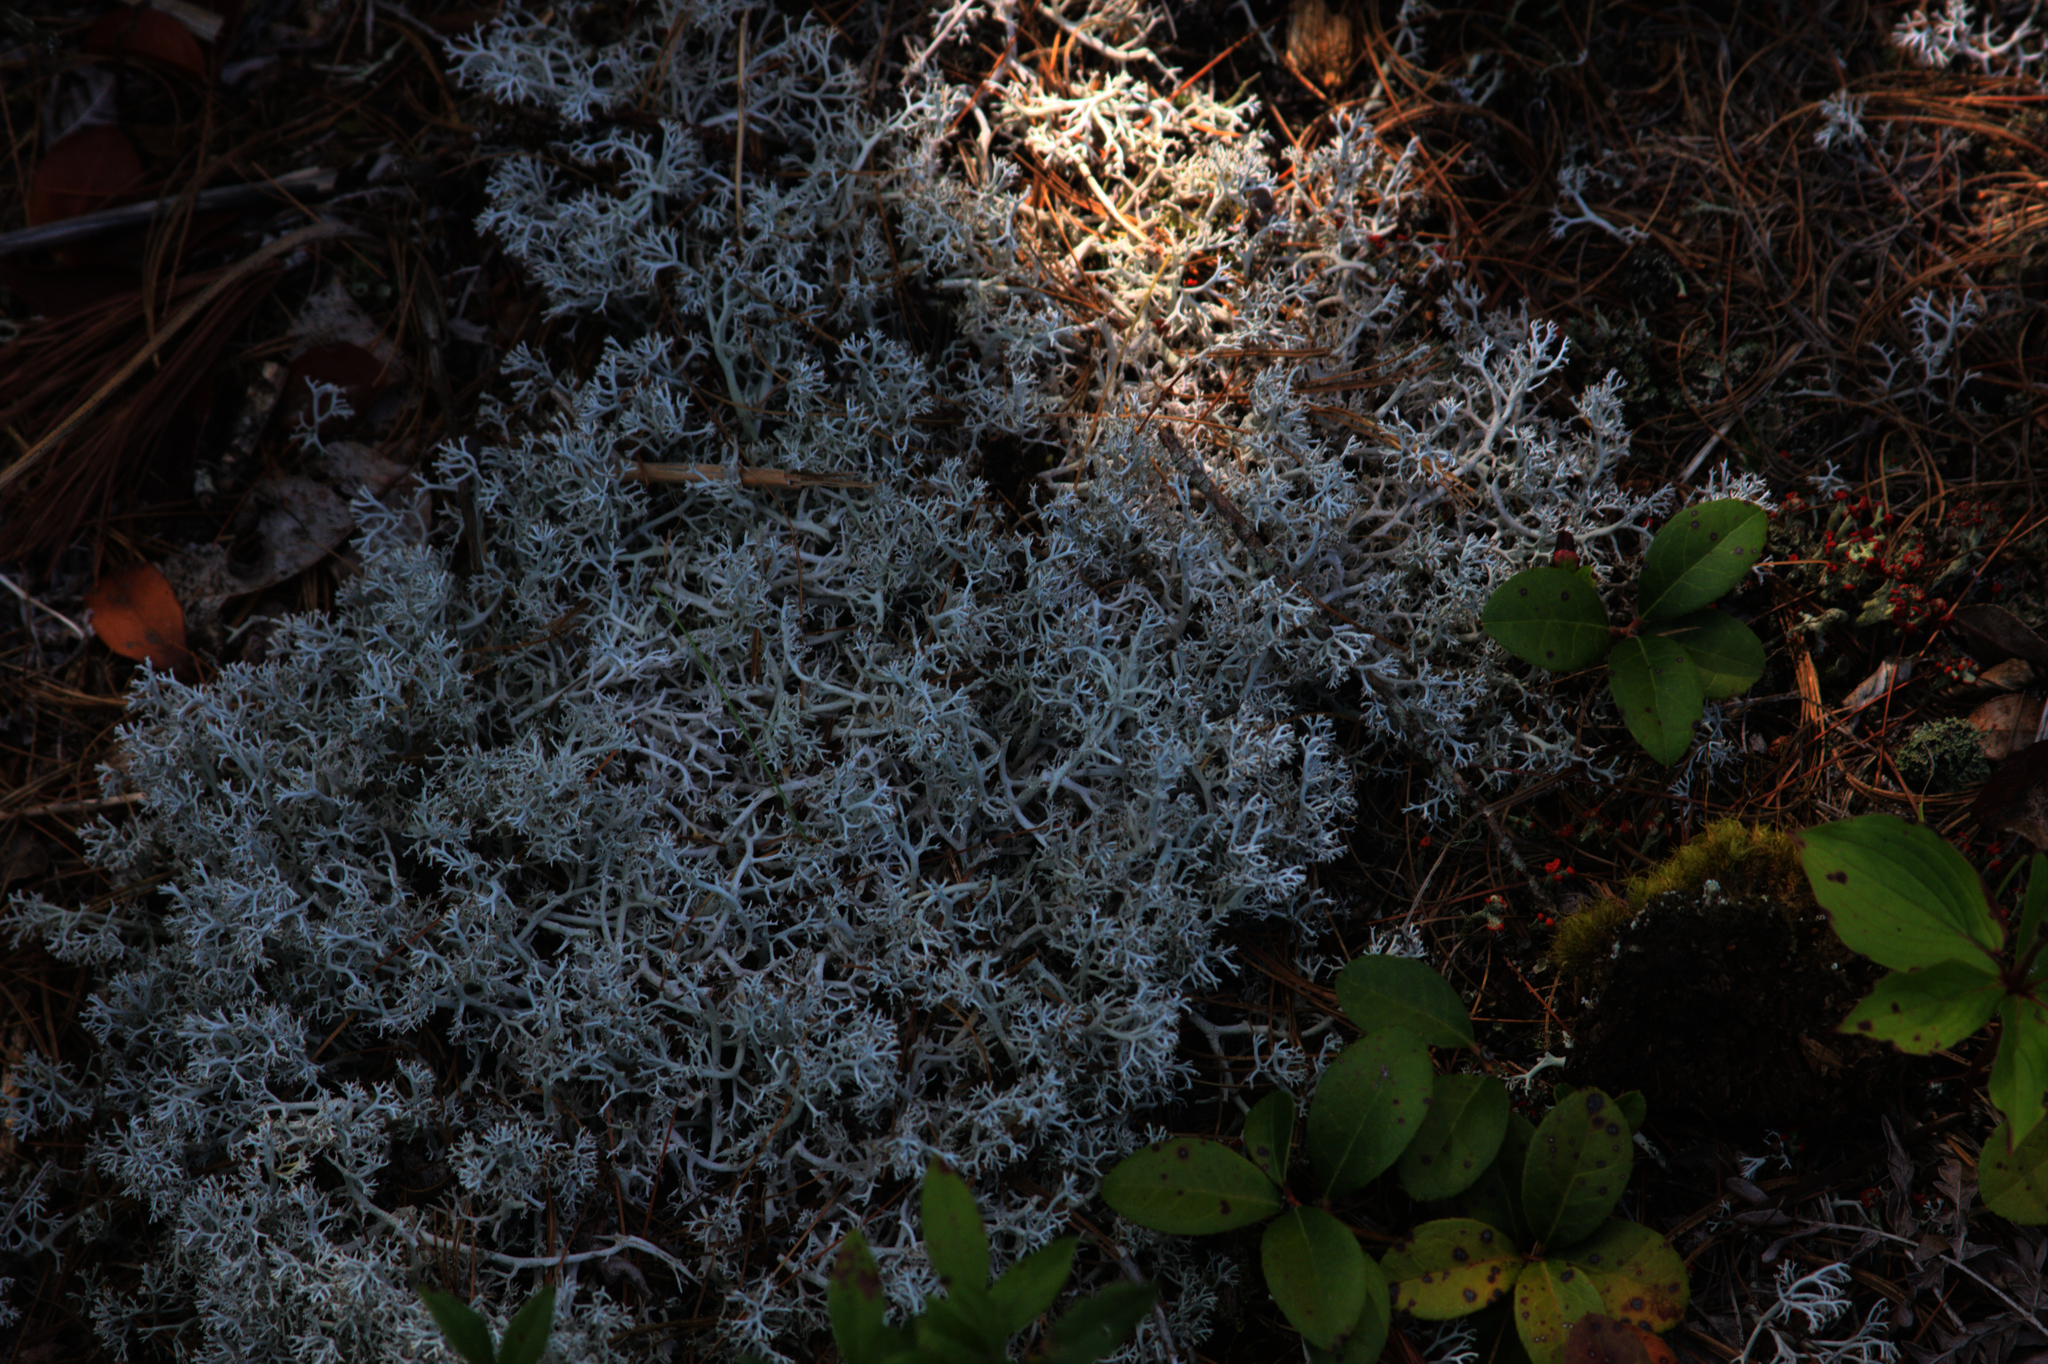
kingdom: Plantae
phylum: Tracheophyta
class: Magnoliopsida
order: Ericales
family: Ericaceae
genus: Gaultheria
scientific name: Gaultheria procumbens
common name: Checkerberry
